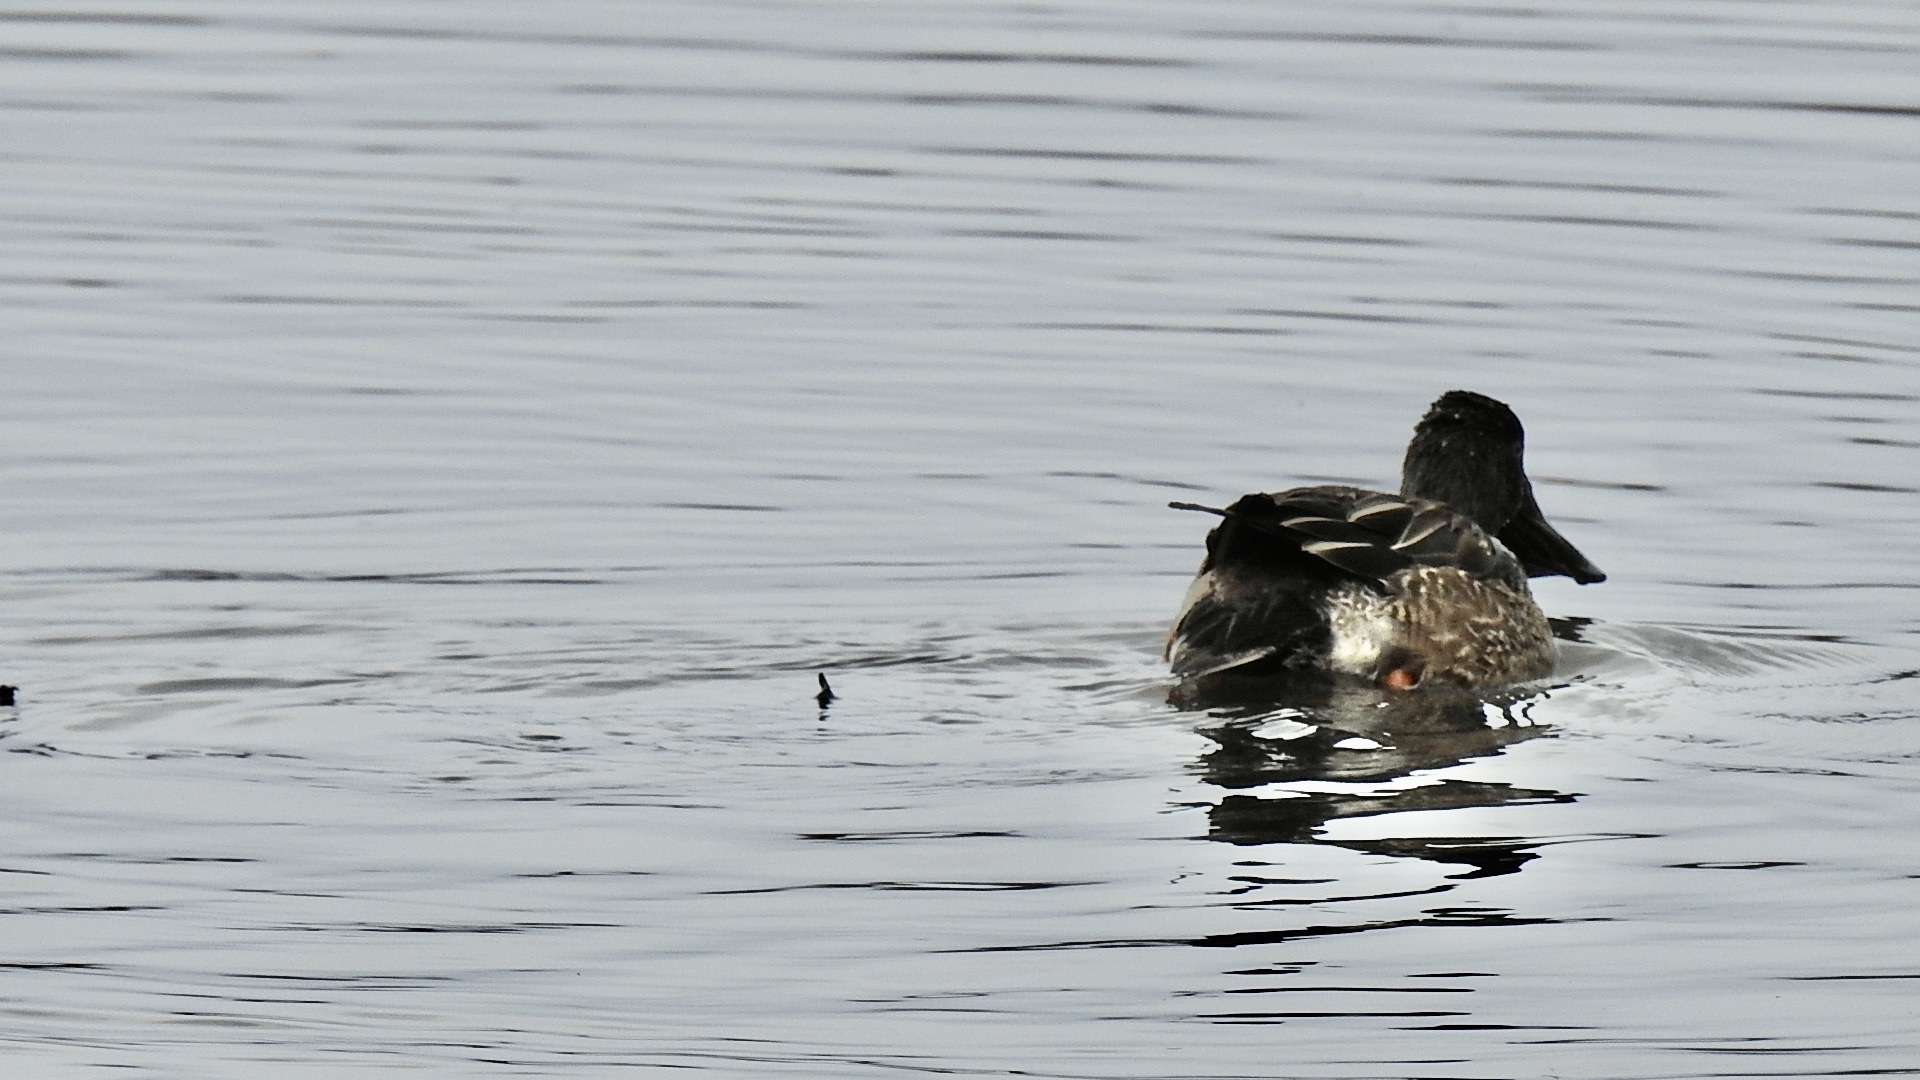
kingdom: Animalia
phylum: Chordata
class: Aves
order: Anseriformes
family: Anatidae
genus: Spatula
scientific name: Spatula clypeata
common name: Northern shoveler
